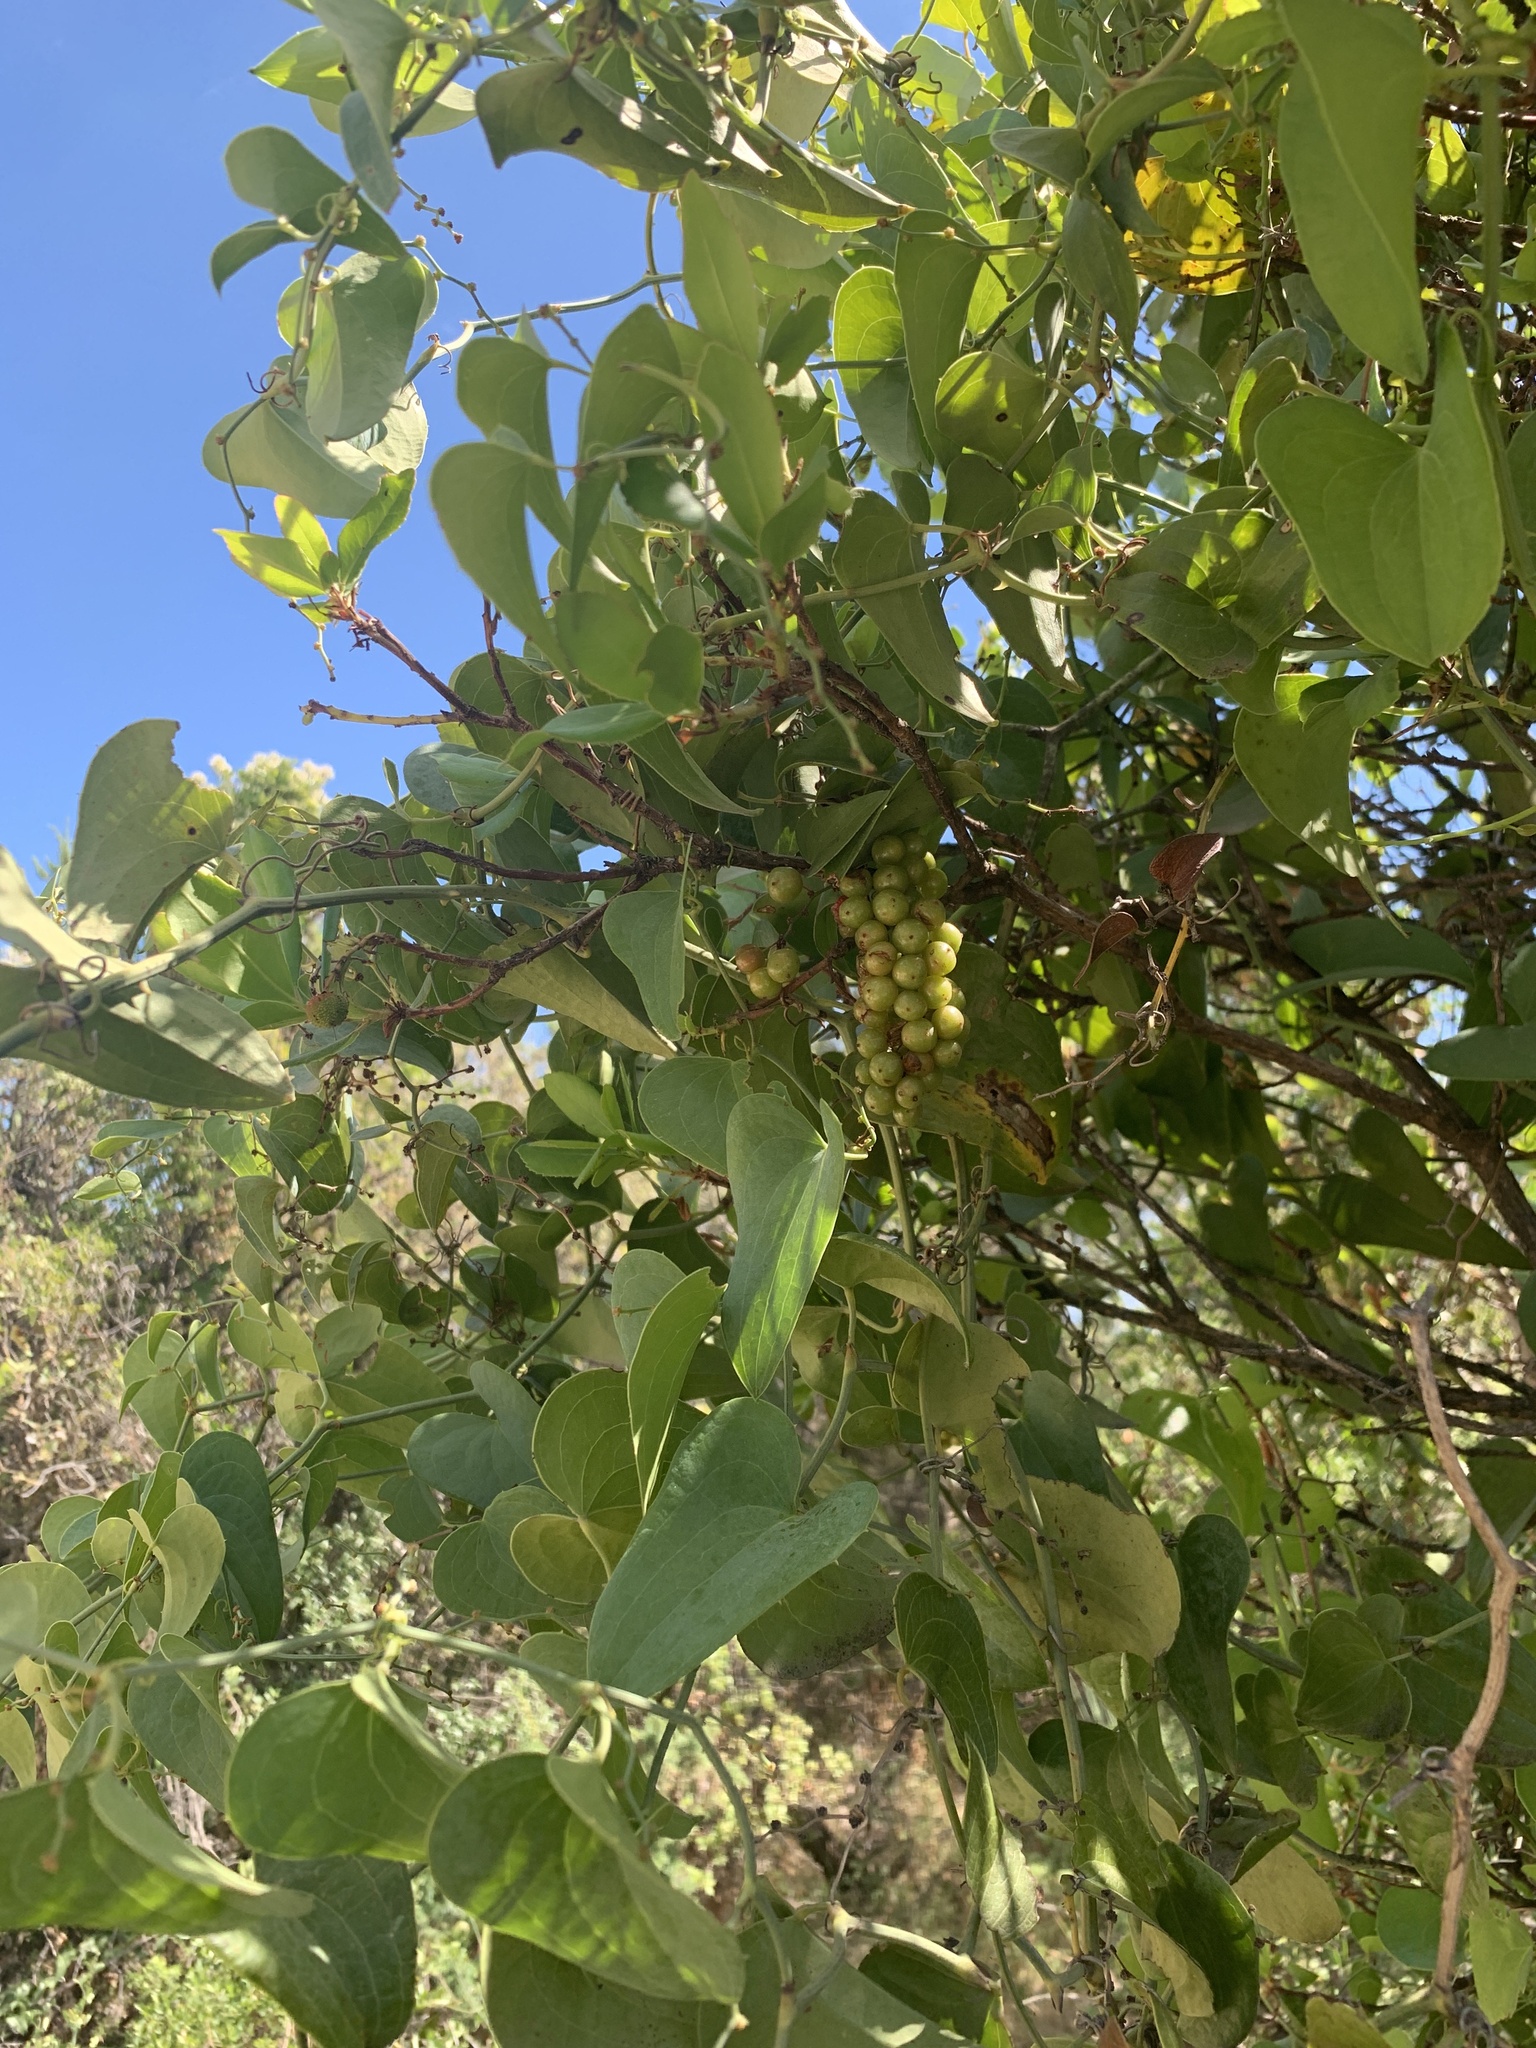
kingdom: Plantae
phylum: Tracheophyta
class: Liliopsida
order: Liliales
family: Smilacaceae
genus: Smilax
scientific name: Smilax aspera
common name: Common smilax
